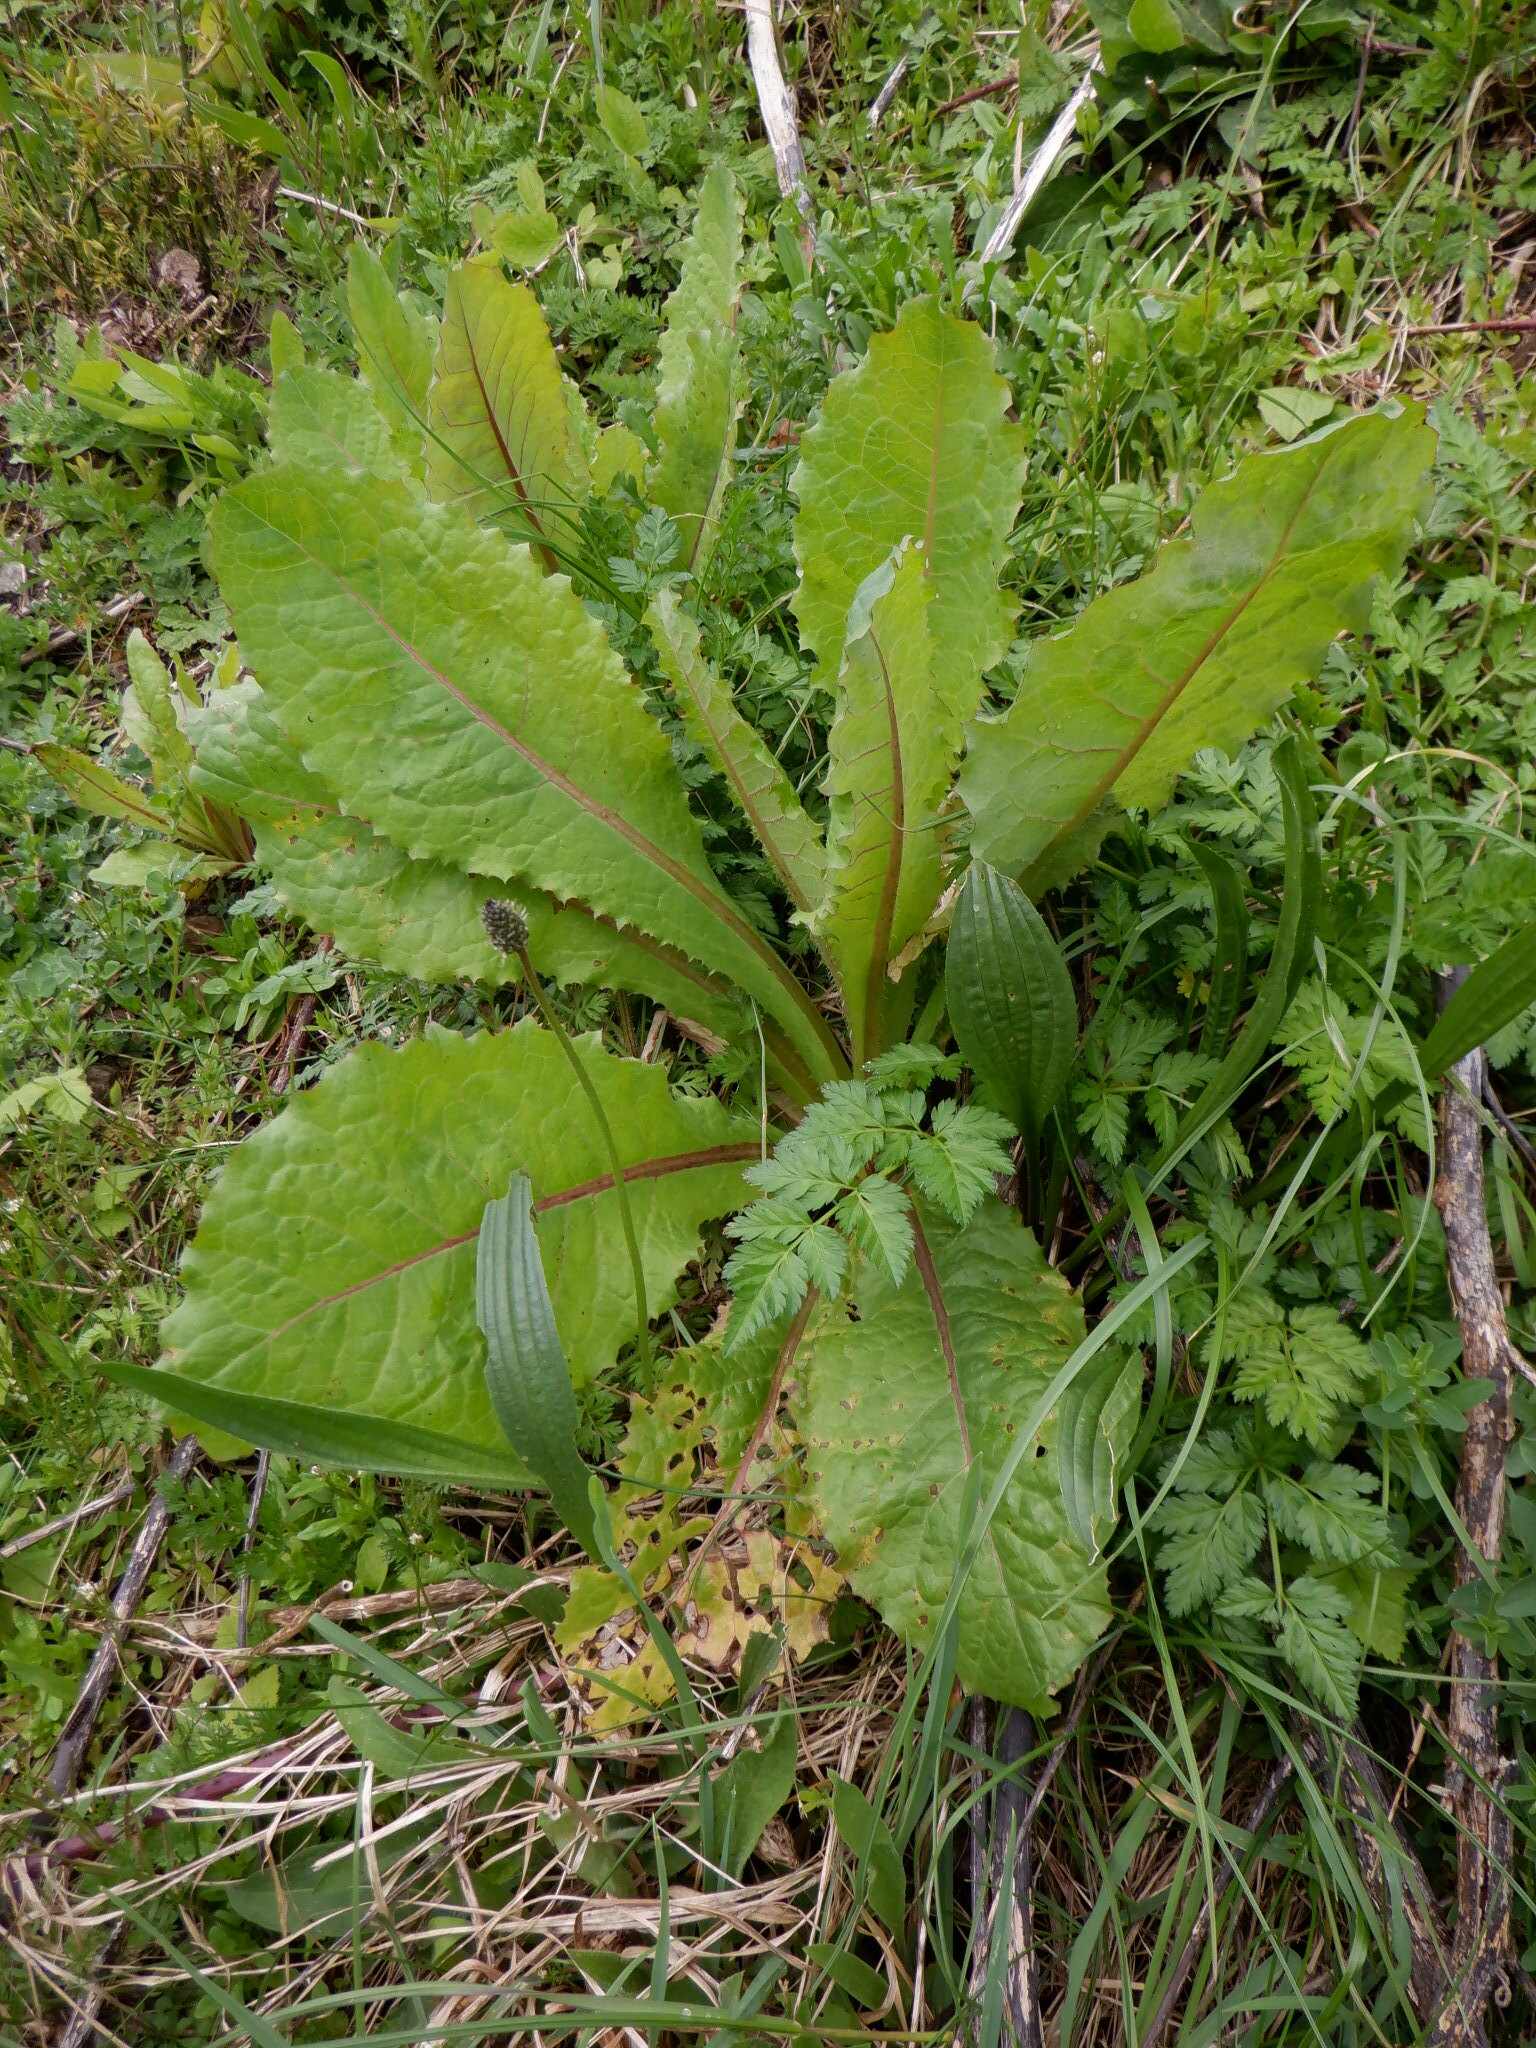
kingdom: Plantae
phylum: Tracheophyta
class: Magnoliopsida
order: Asterales
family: Asteraceae
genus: Lactuca
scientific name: Lactuca virosa
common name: Great lettuce
